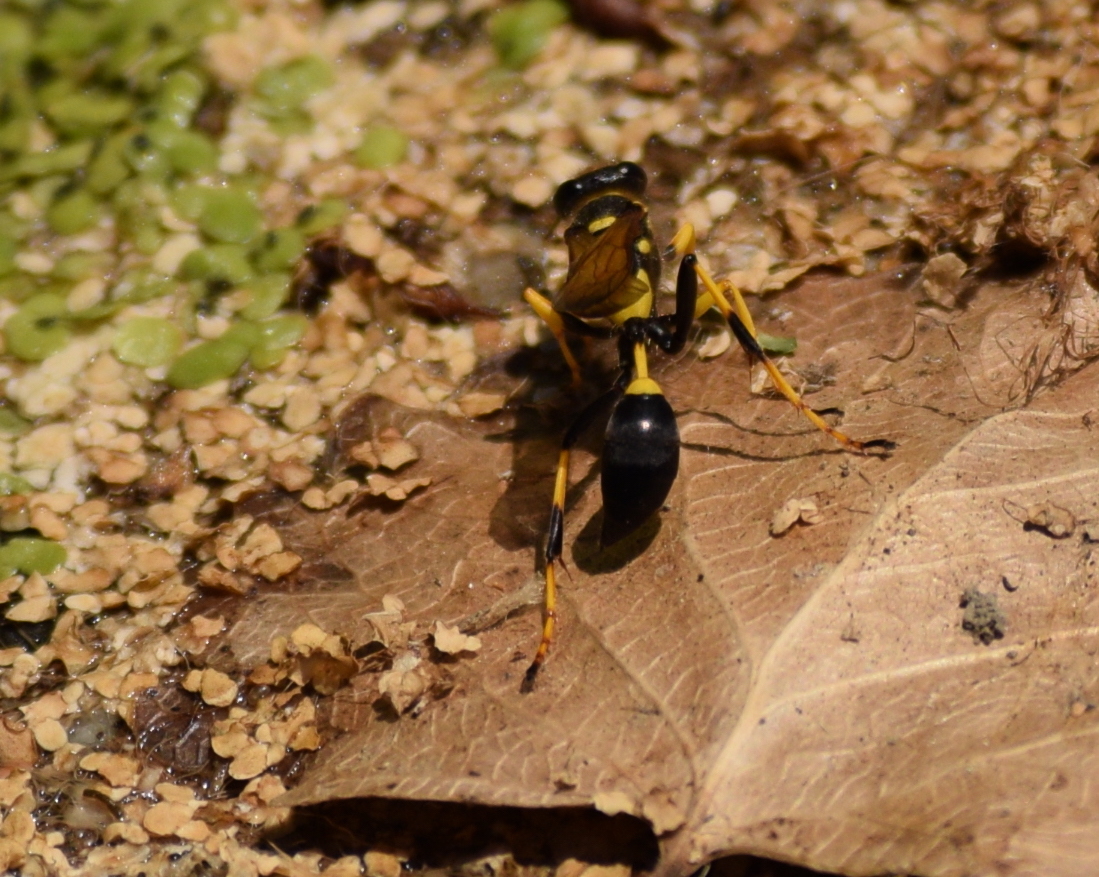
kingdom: Animalia
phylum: Arthropoda
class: Insecta
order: Hymenoptera
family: Sphecidae
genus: Sceliphron
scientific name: Sceliphron caementarium
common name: Mud dauber
